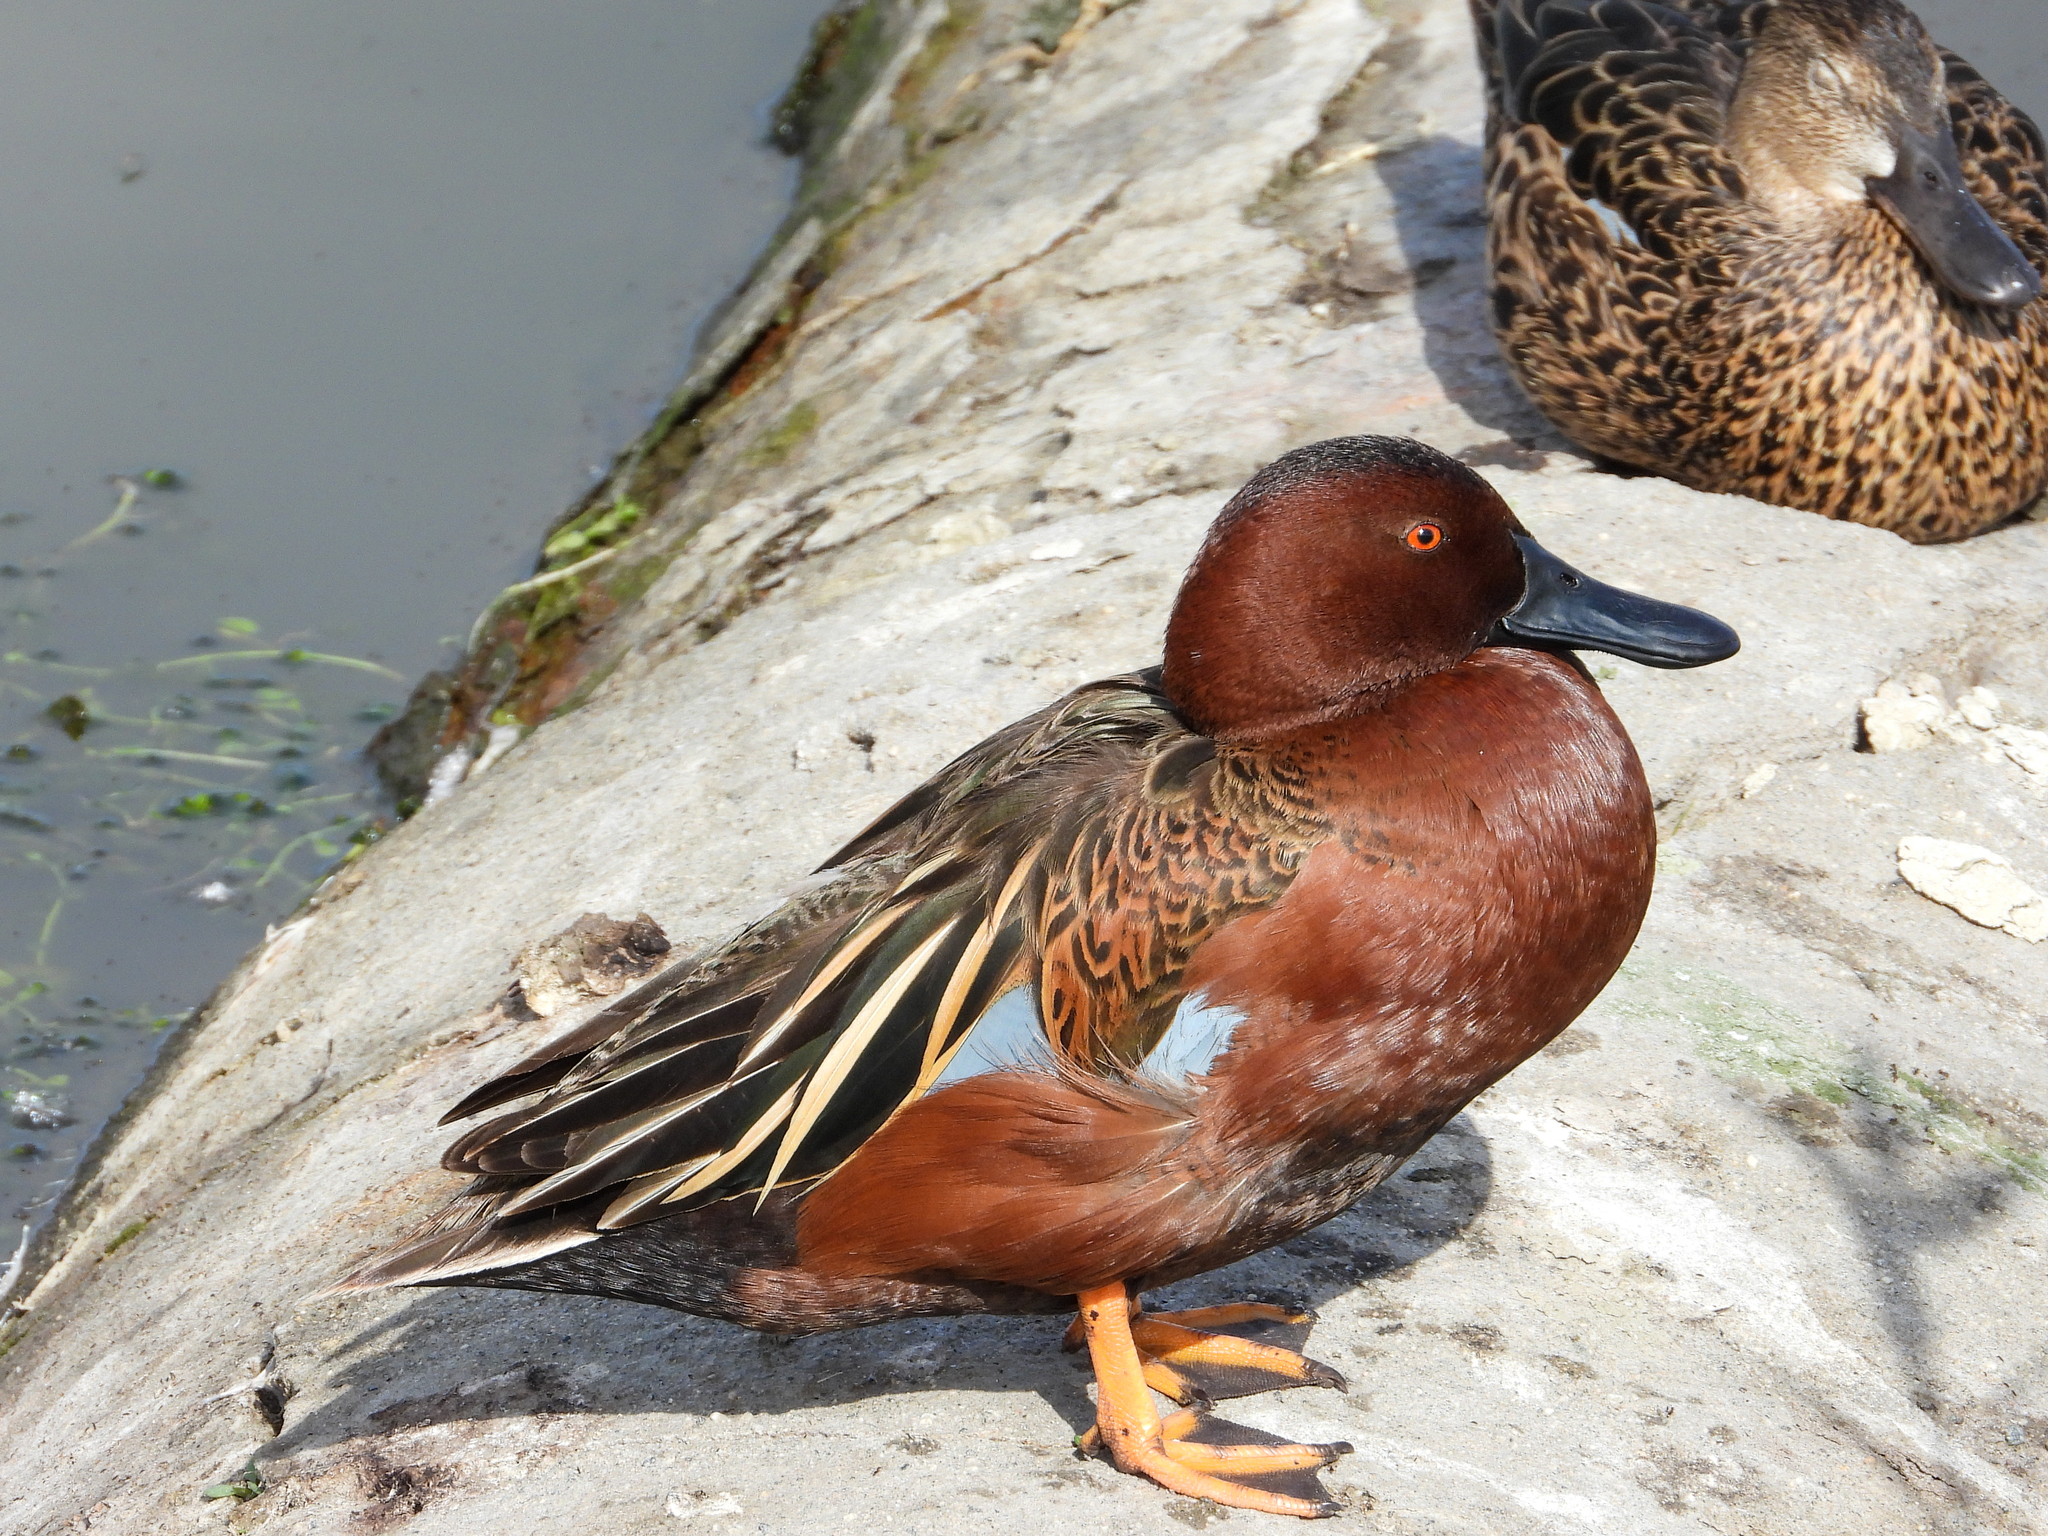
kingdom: Animalia
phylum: Chordata
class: Aves
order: Anseriformes
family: Anatidae
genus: Spatula
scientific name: Spatula cyanoptera
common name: Cinnamon teal
